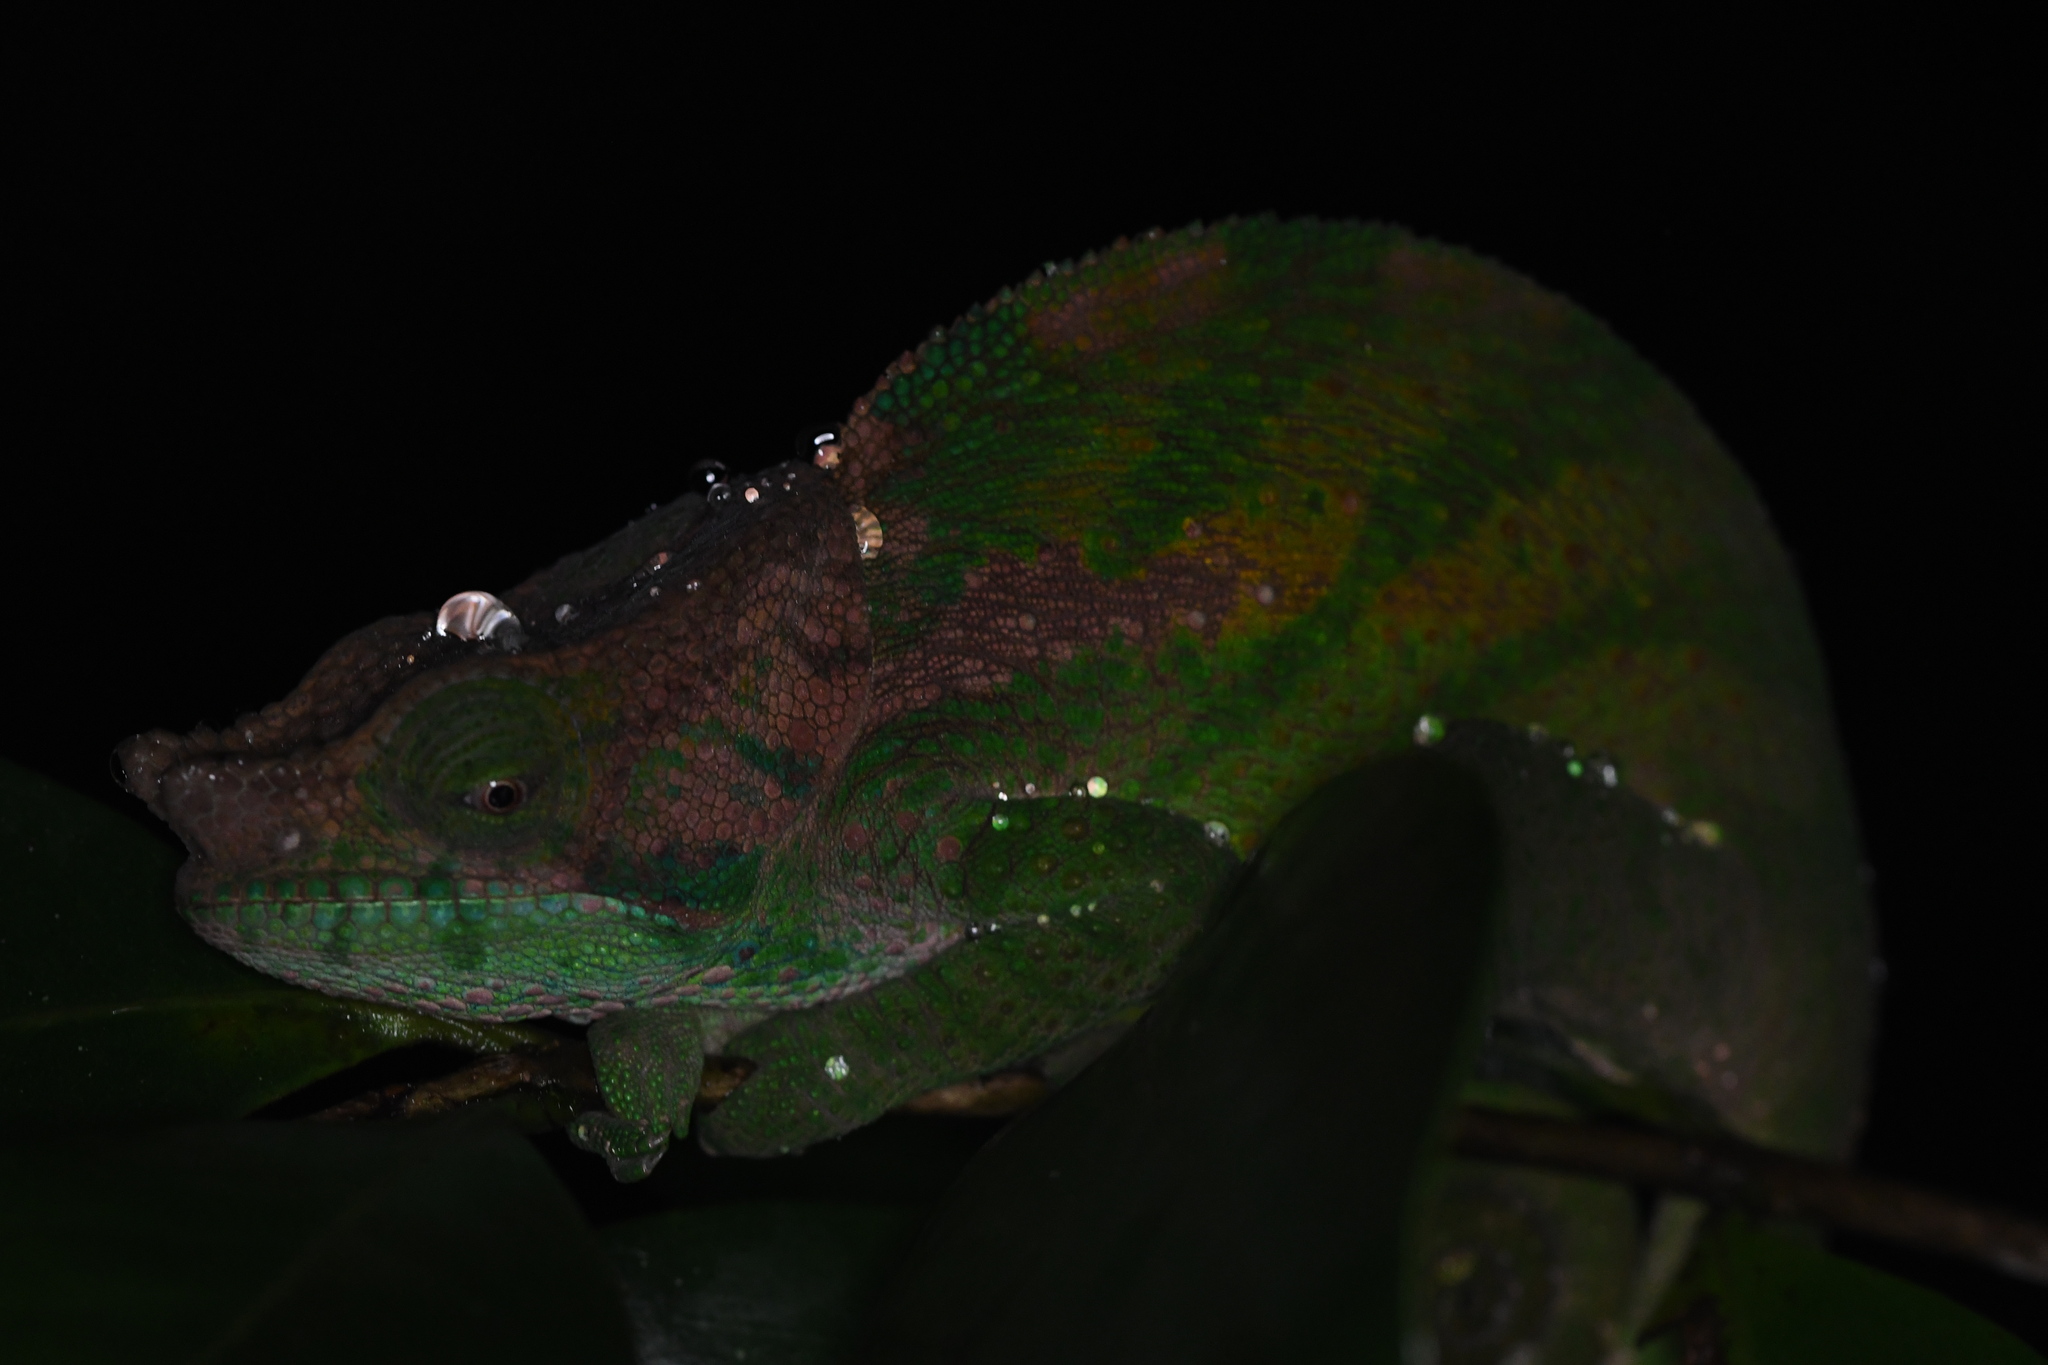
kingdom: Animalia
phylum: Chordata
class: Squamata
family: Chamaeleonidae
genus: Calumma
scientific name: Calumma oshaughnessyi
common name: O'shaughnessy's chameleon
